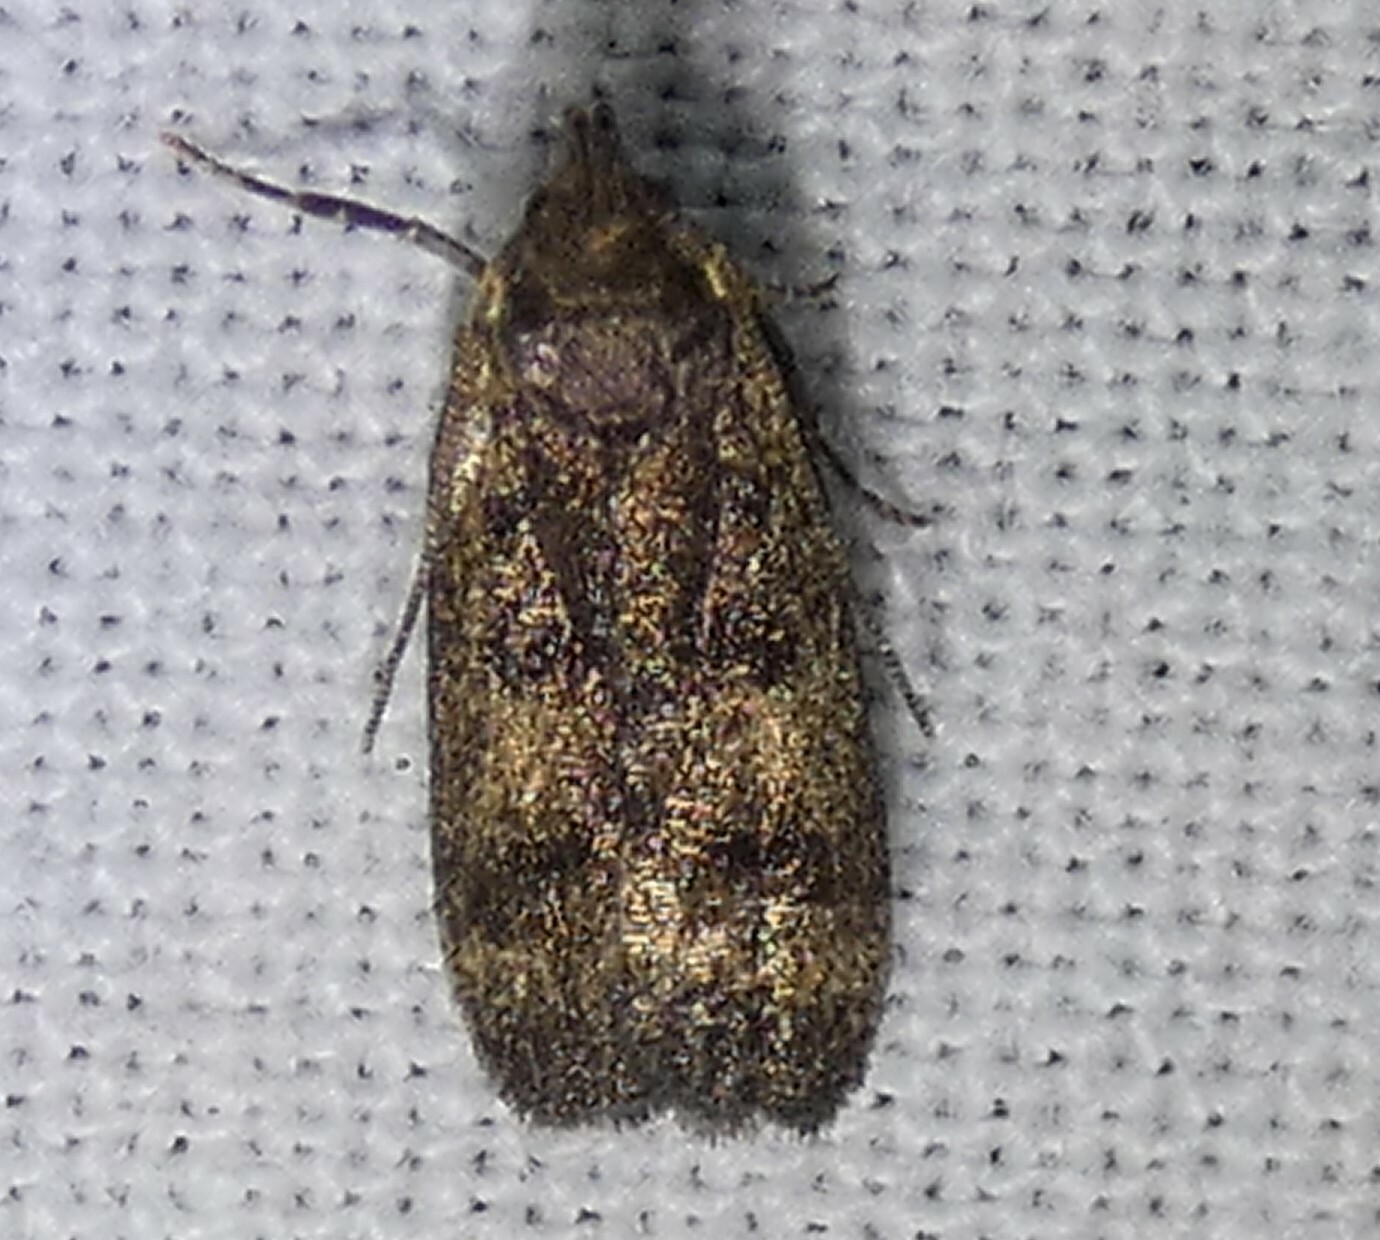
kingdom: Animalia
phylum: Arthropoda
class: Insecta
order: Lepidoptera
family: Autostichidae
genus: Glyphidocera
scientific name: Glyphidocera floridanella
